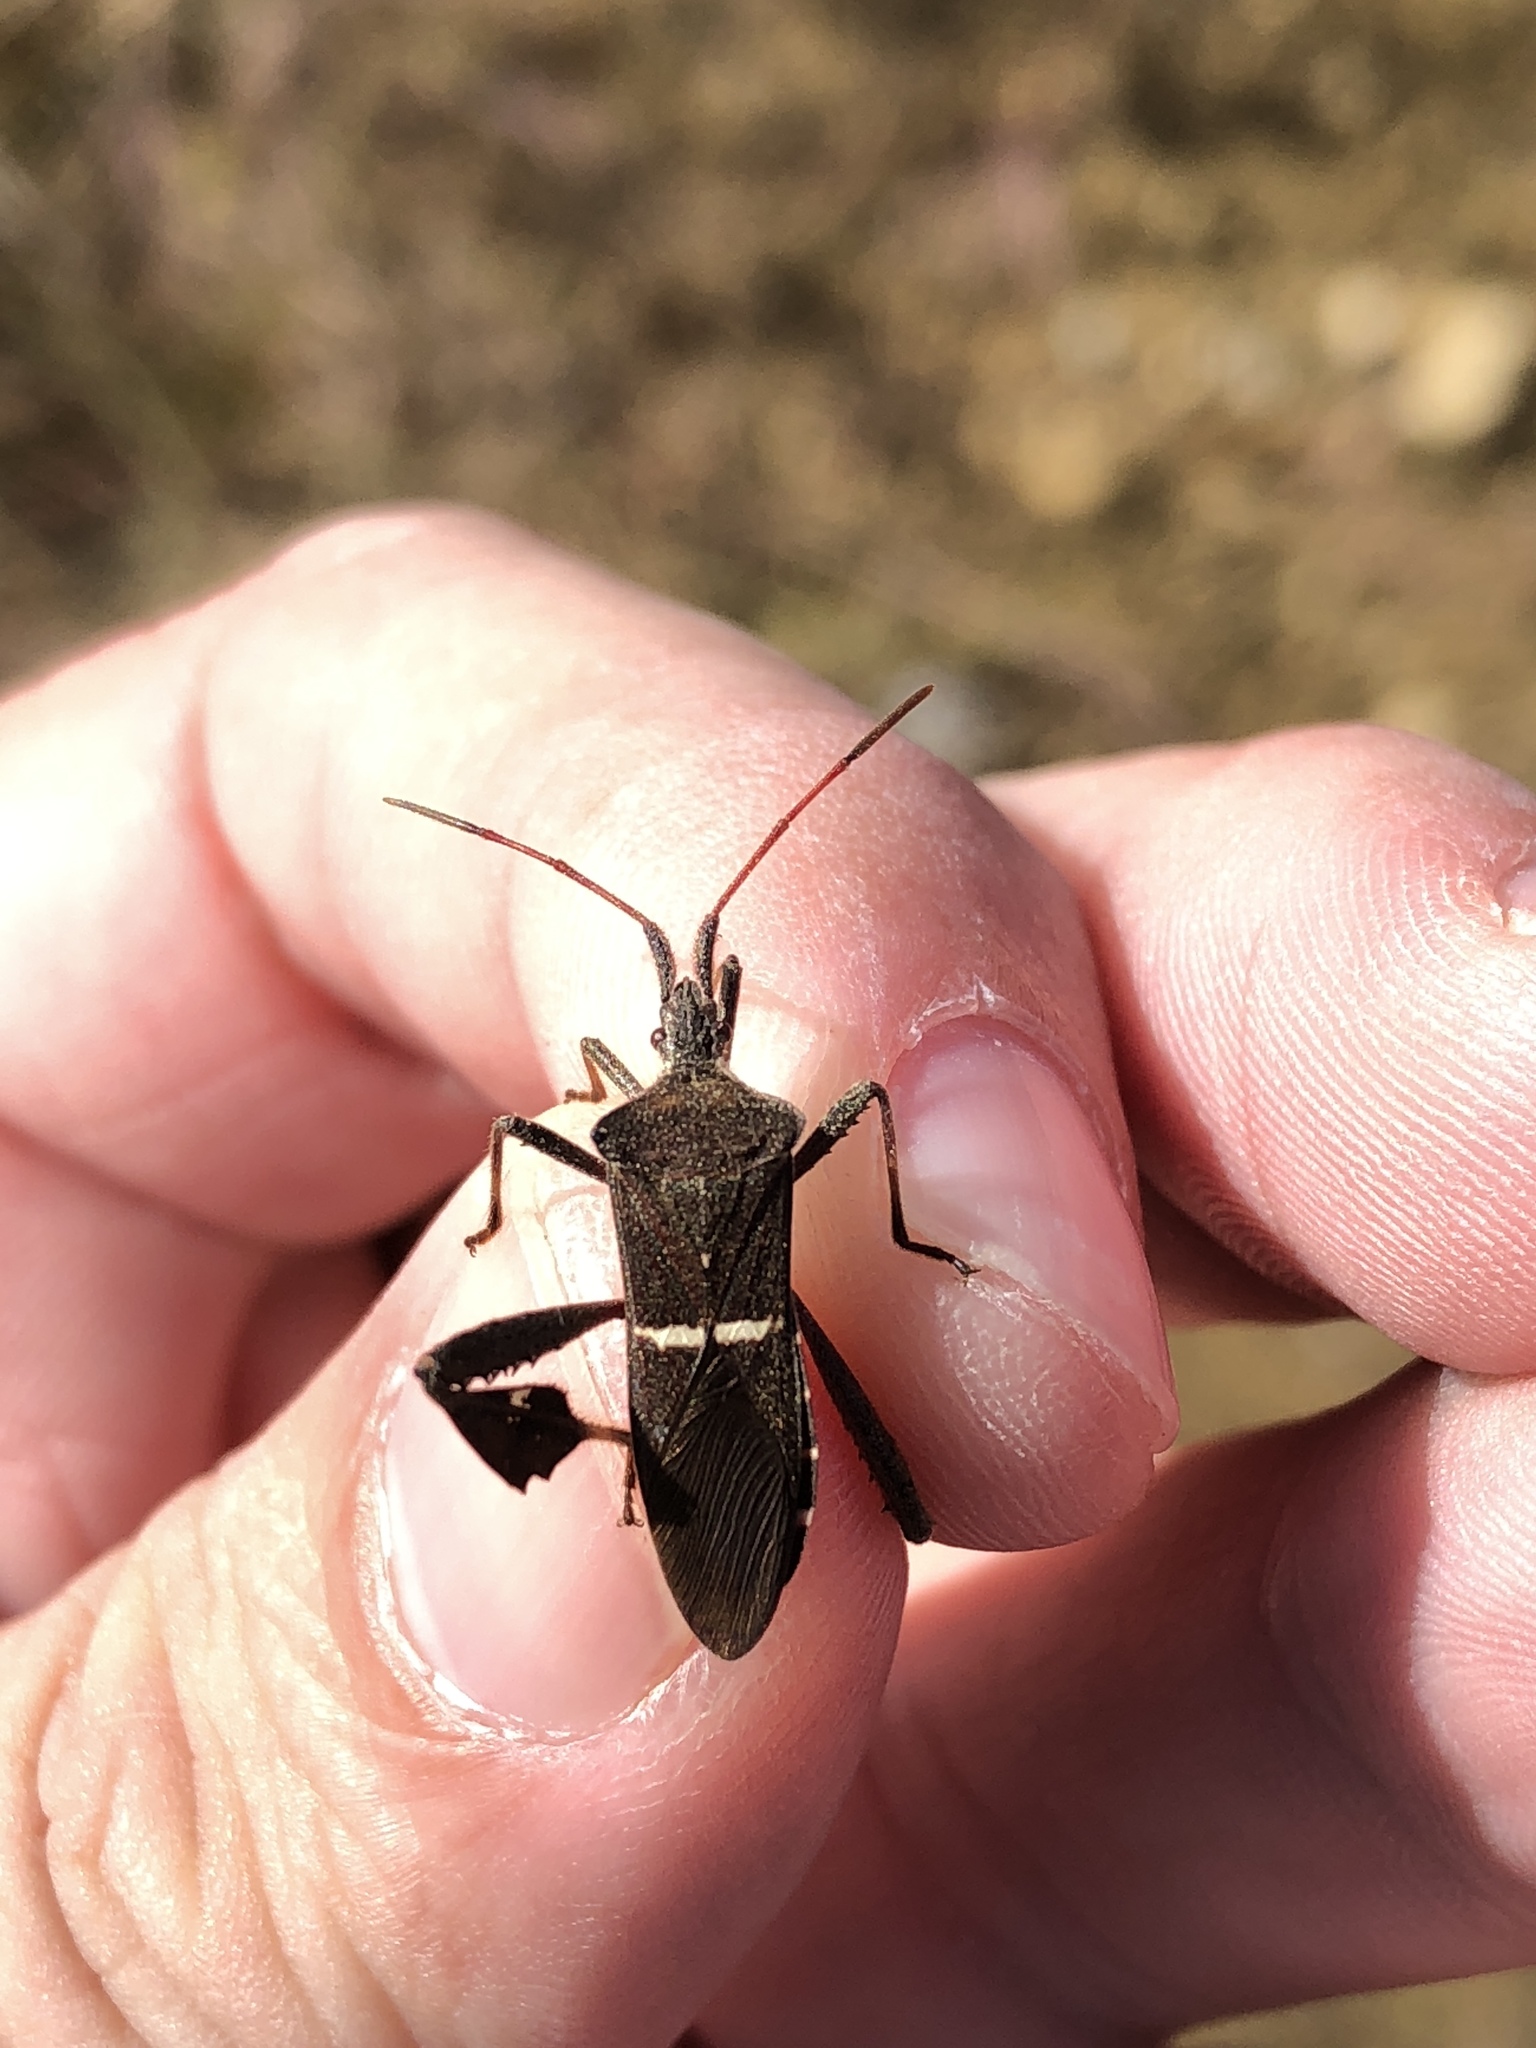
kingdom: Animalia
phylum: Arthropoda
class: Insecta
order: Hemiptera
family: Coreidae
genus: Leptoglossus
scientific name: Leptoglossus phyllopus
